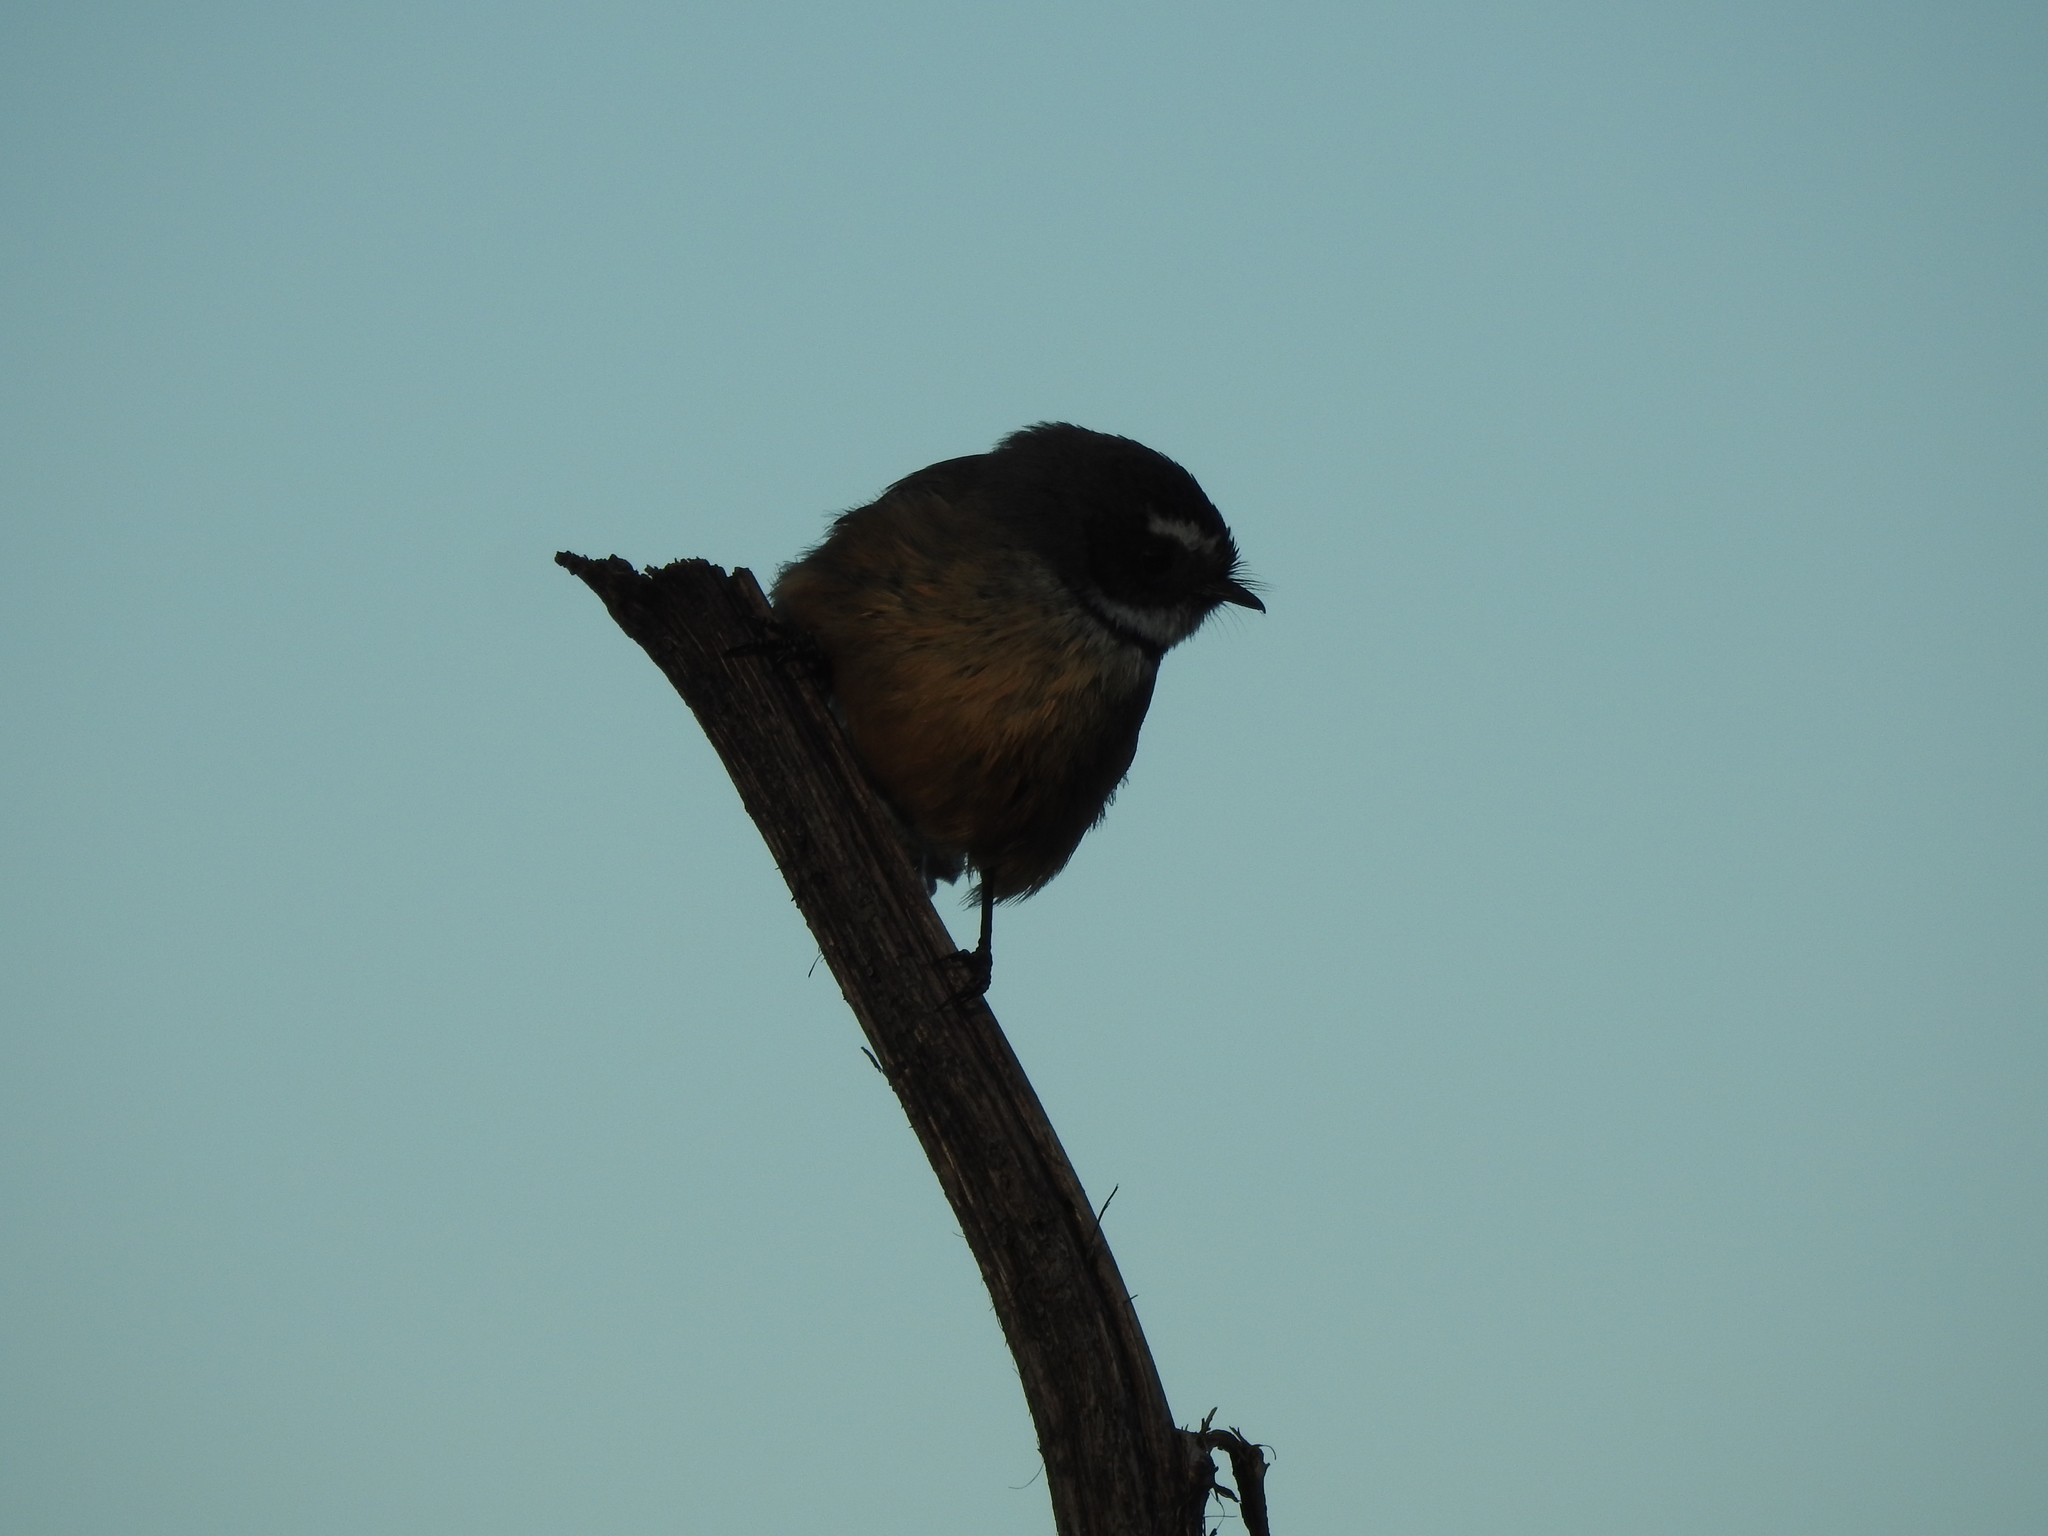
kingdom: Animalia
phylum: Chordata
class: Aves
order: Passeriformes
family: Rhipiduridae
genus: Rhipidura
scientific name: Rhipidura fuliginosa
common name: New zealand fantail
